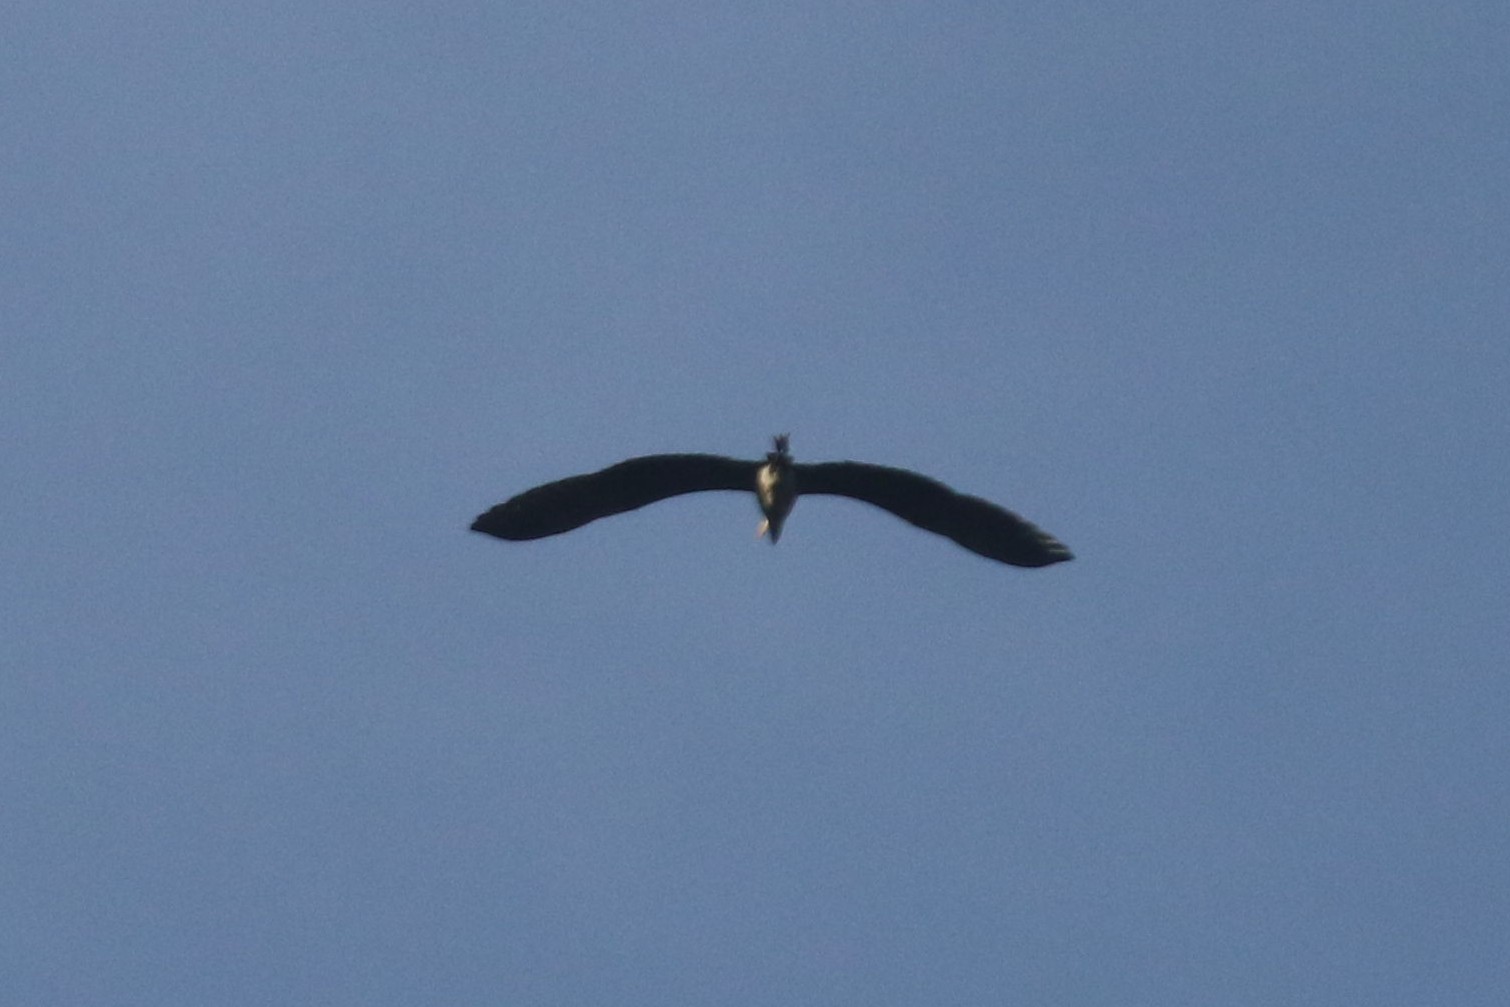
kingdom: Animalia
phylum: Chordata
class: Aves
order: Pelecaniformes
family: Ardeidae
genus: Ardea
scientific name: Ardea cinerea
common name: Grey heron
